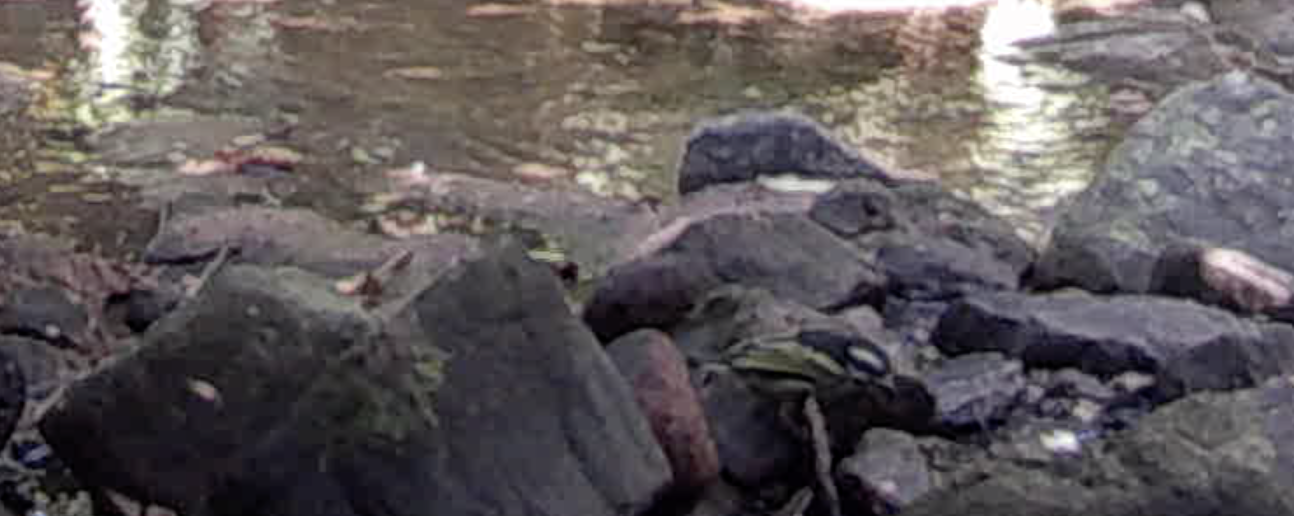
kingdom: Animalia
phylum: Chordata
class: Aves
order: Piciformes
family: Lybiidae
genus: Pogoniulus
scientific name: Pogoniulus bilineatus
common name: Yellow-rumped tinkerbird
